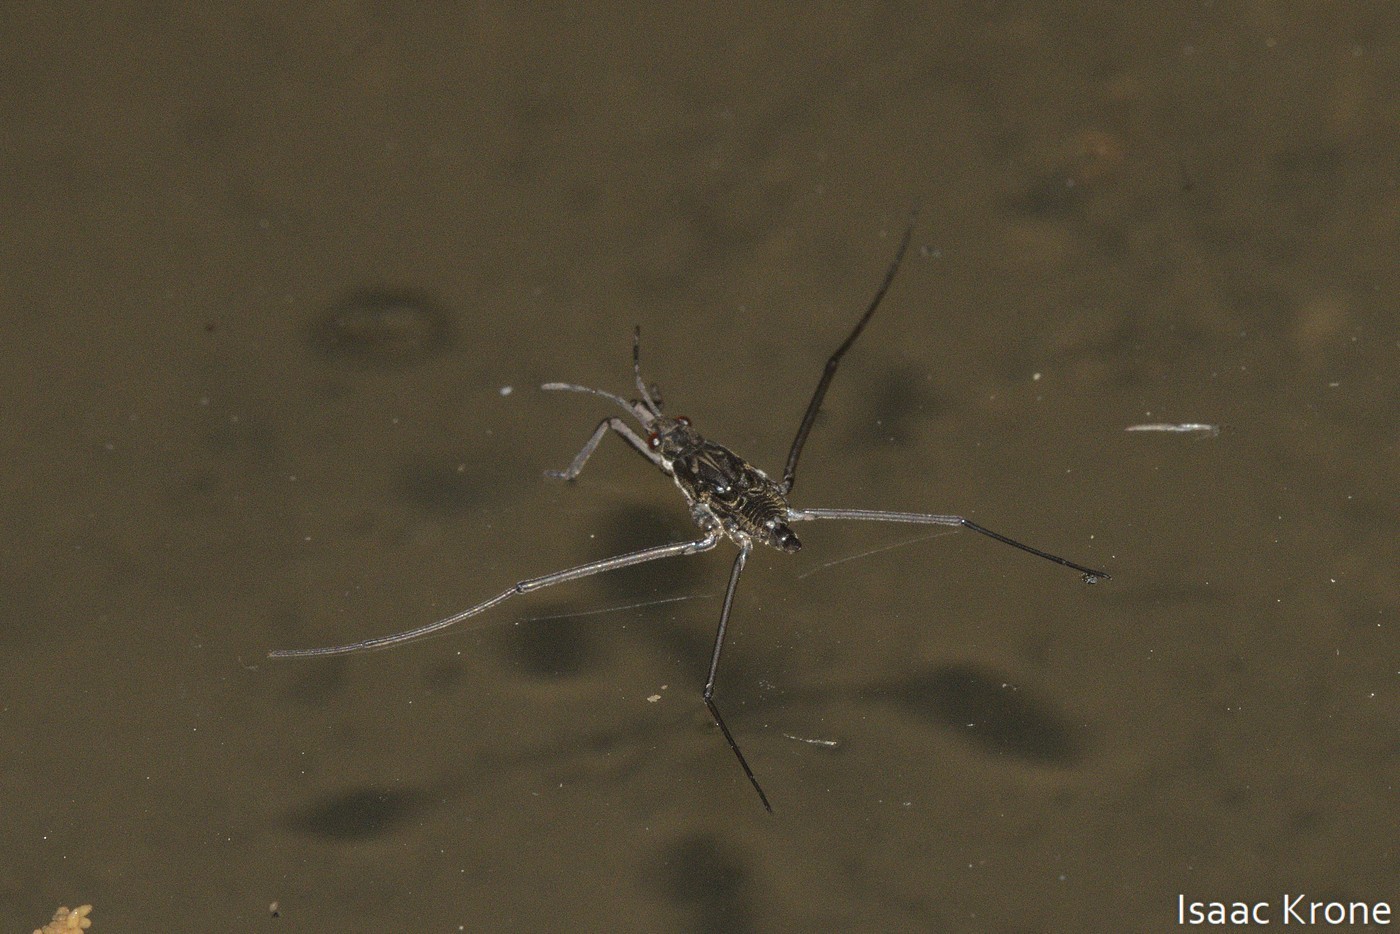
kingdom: Animalia
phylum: Arthropoda
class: Insecta
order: Hemiptera
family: Gerridae
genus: Aquarius
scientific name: Aquarius remigis
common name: Common water strider
